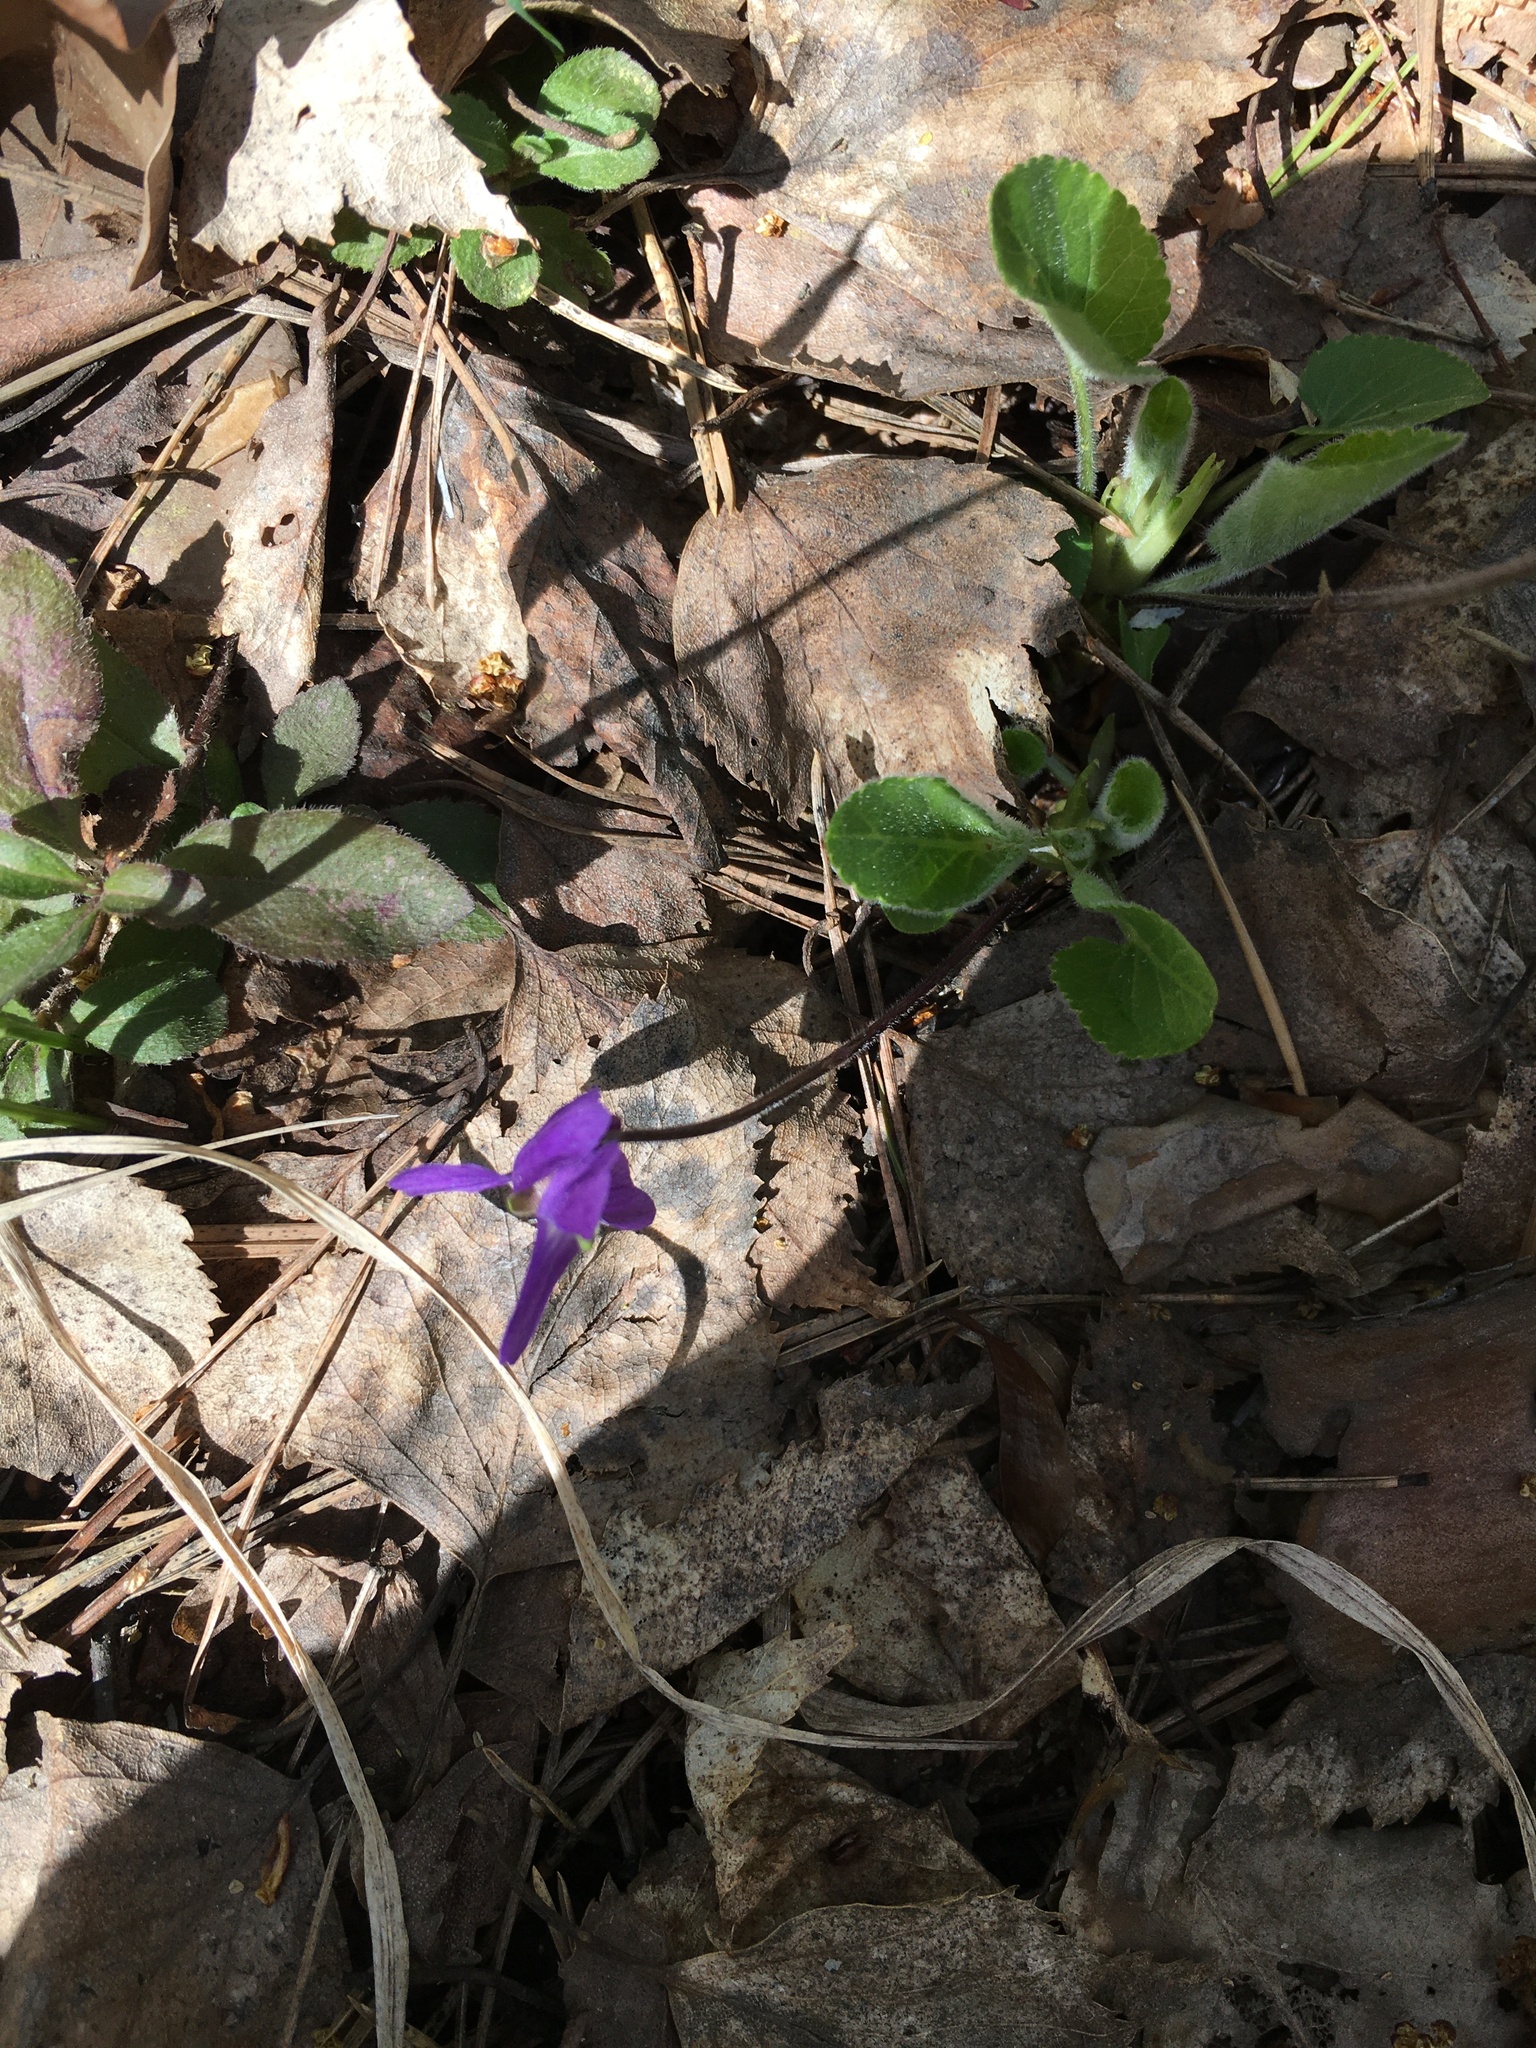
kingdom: Plantae
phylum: Tracheophyta
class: Magnoliopsida
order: Malpighiales
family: Violaceae
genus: Viola
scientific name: Viola hirta
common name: Hairy violet
